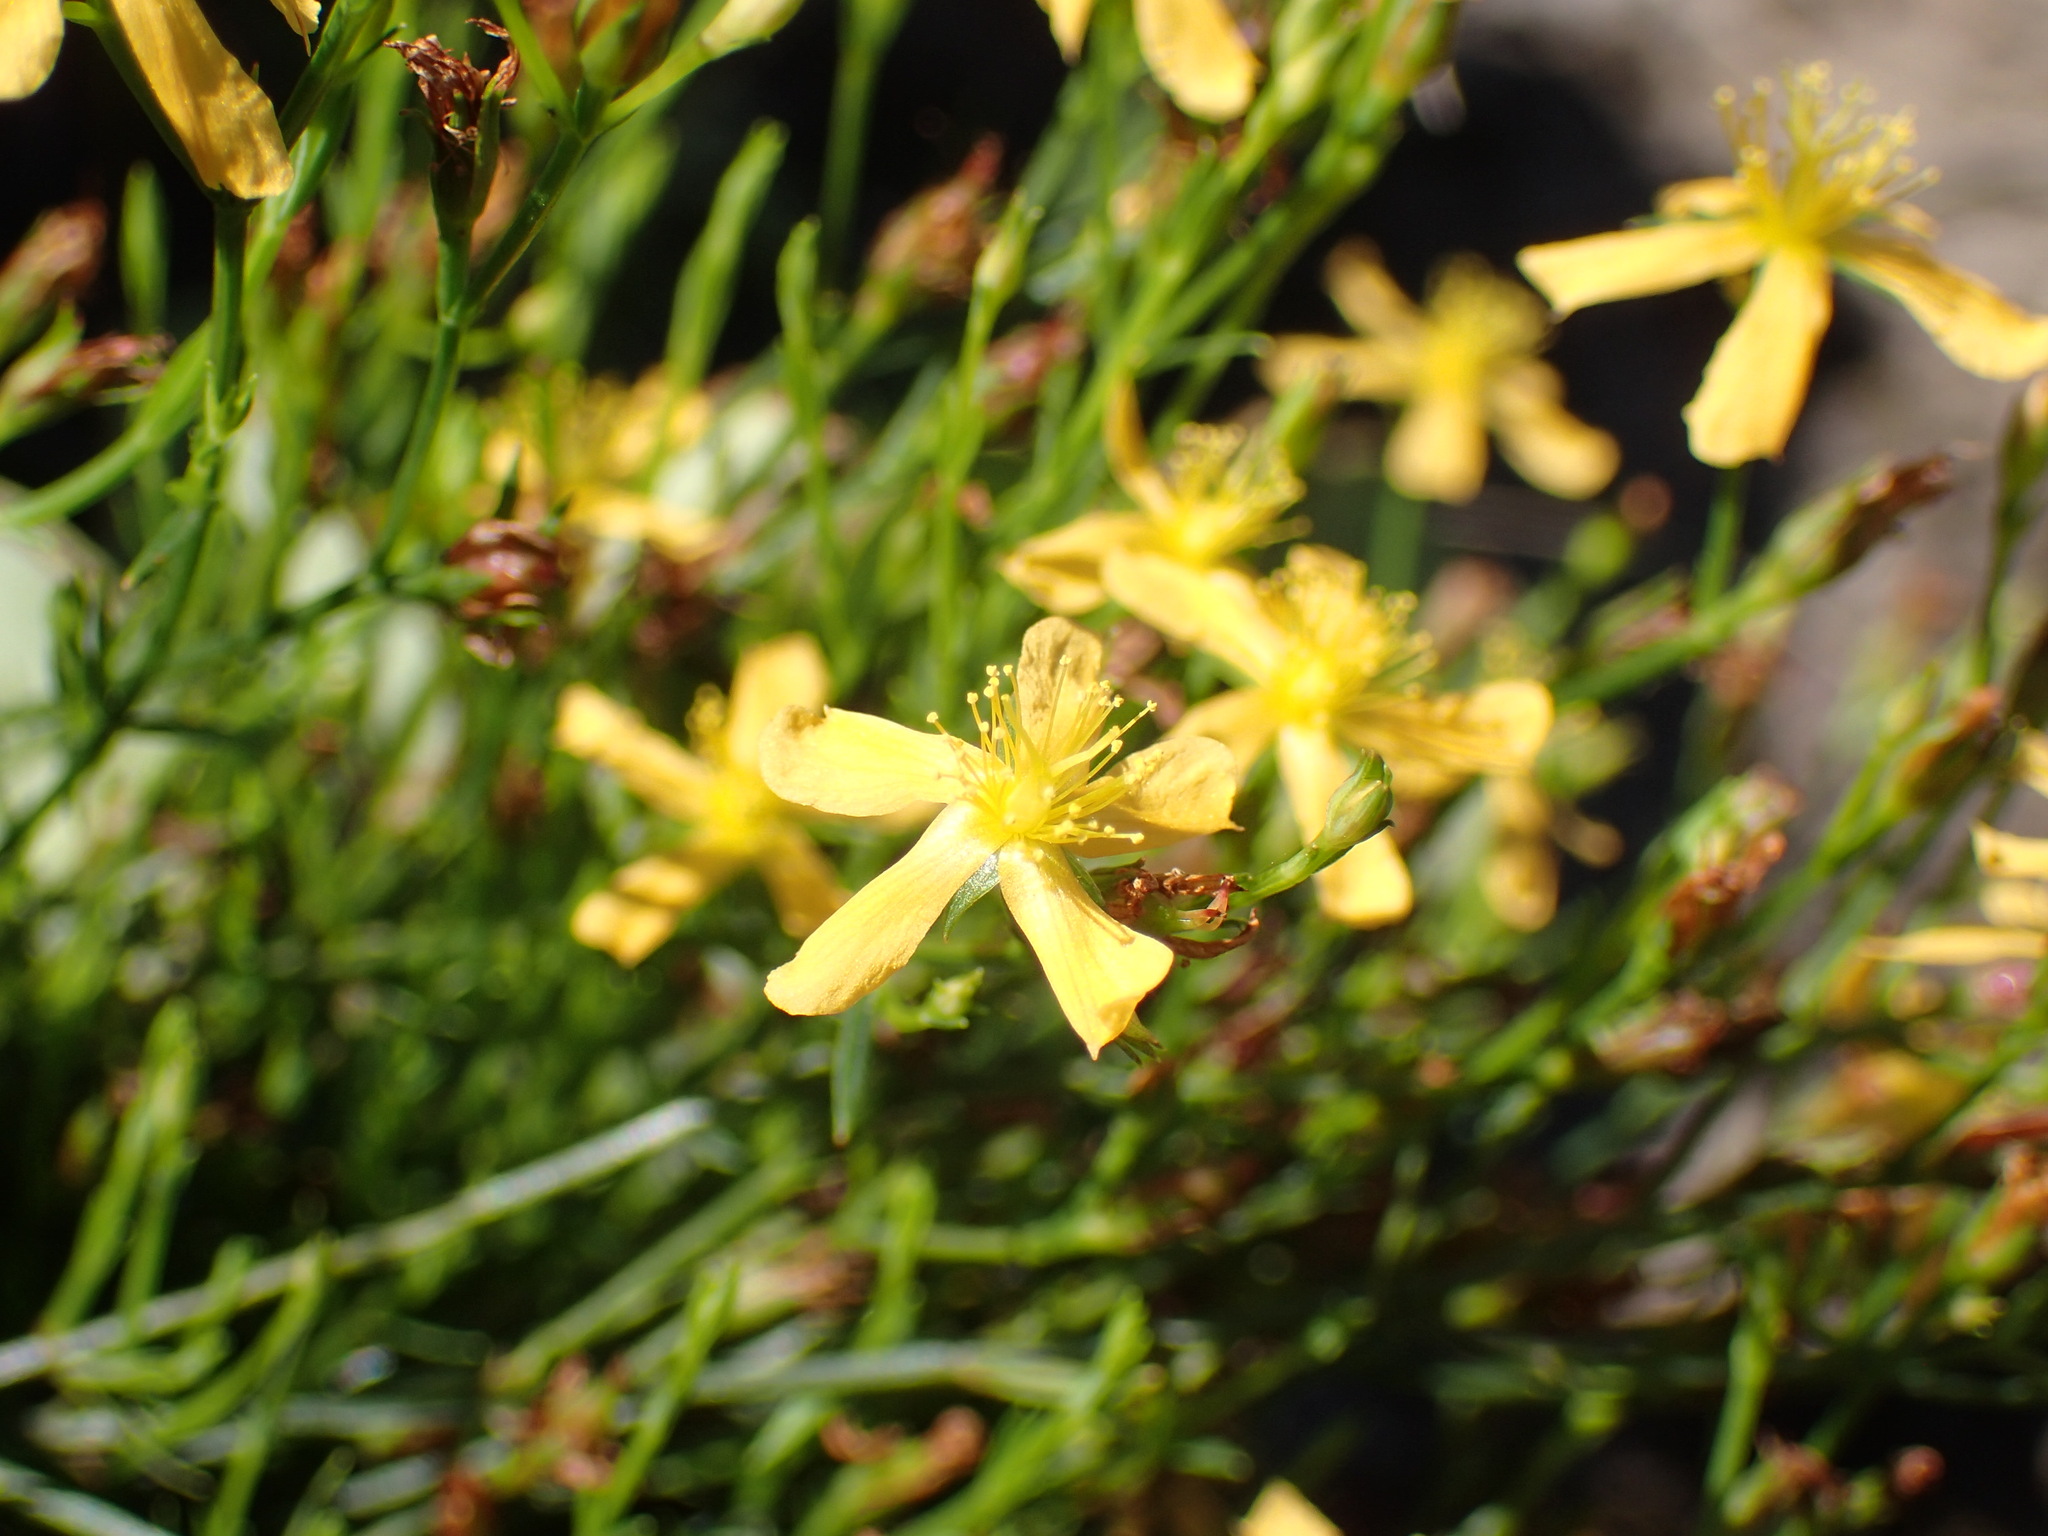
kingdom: Plantae
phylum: Tracheophyta
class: Magnoliopsida
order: Malpighiales
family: Hypericaceae
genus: Hypericum
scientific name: Hypericum lalandii
